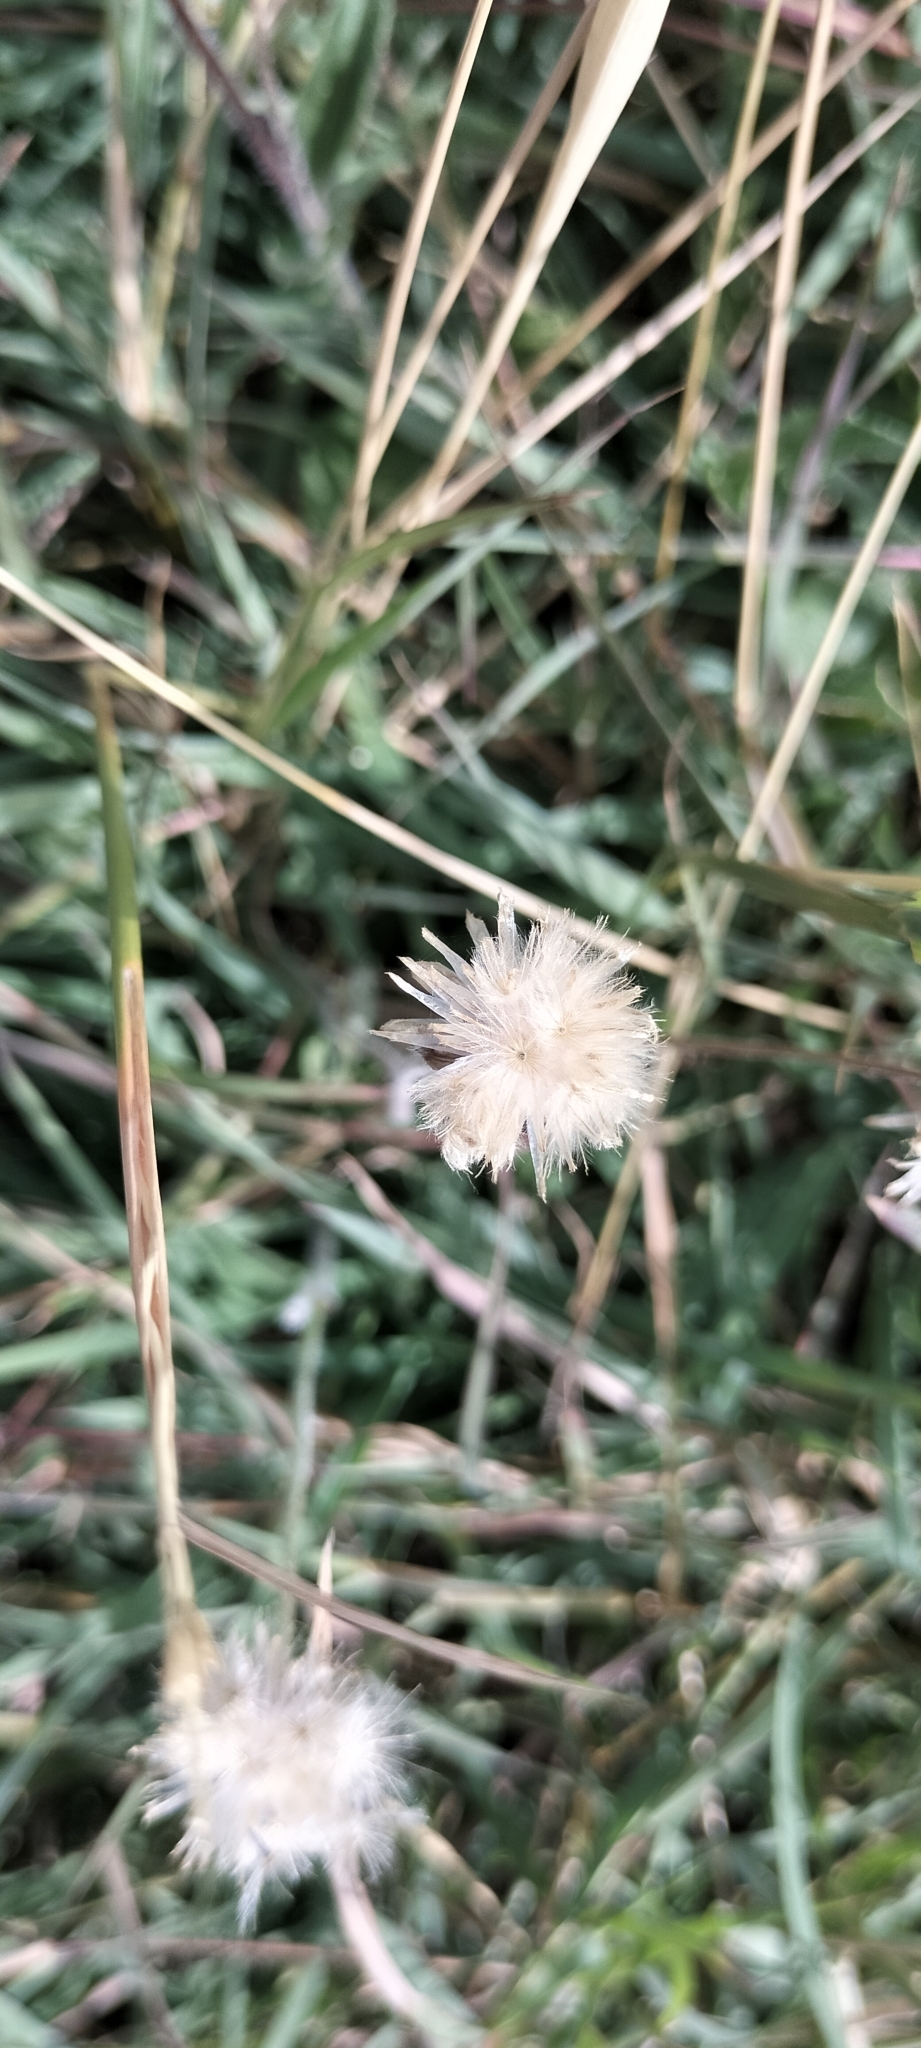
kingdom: Plantae
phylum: Tracheophyta
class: Magnoliopsida
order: Asterales
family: Asteraceae
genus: Tridax
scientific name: Tridax procumbens
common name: Coatbuttons
